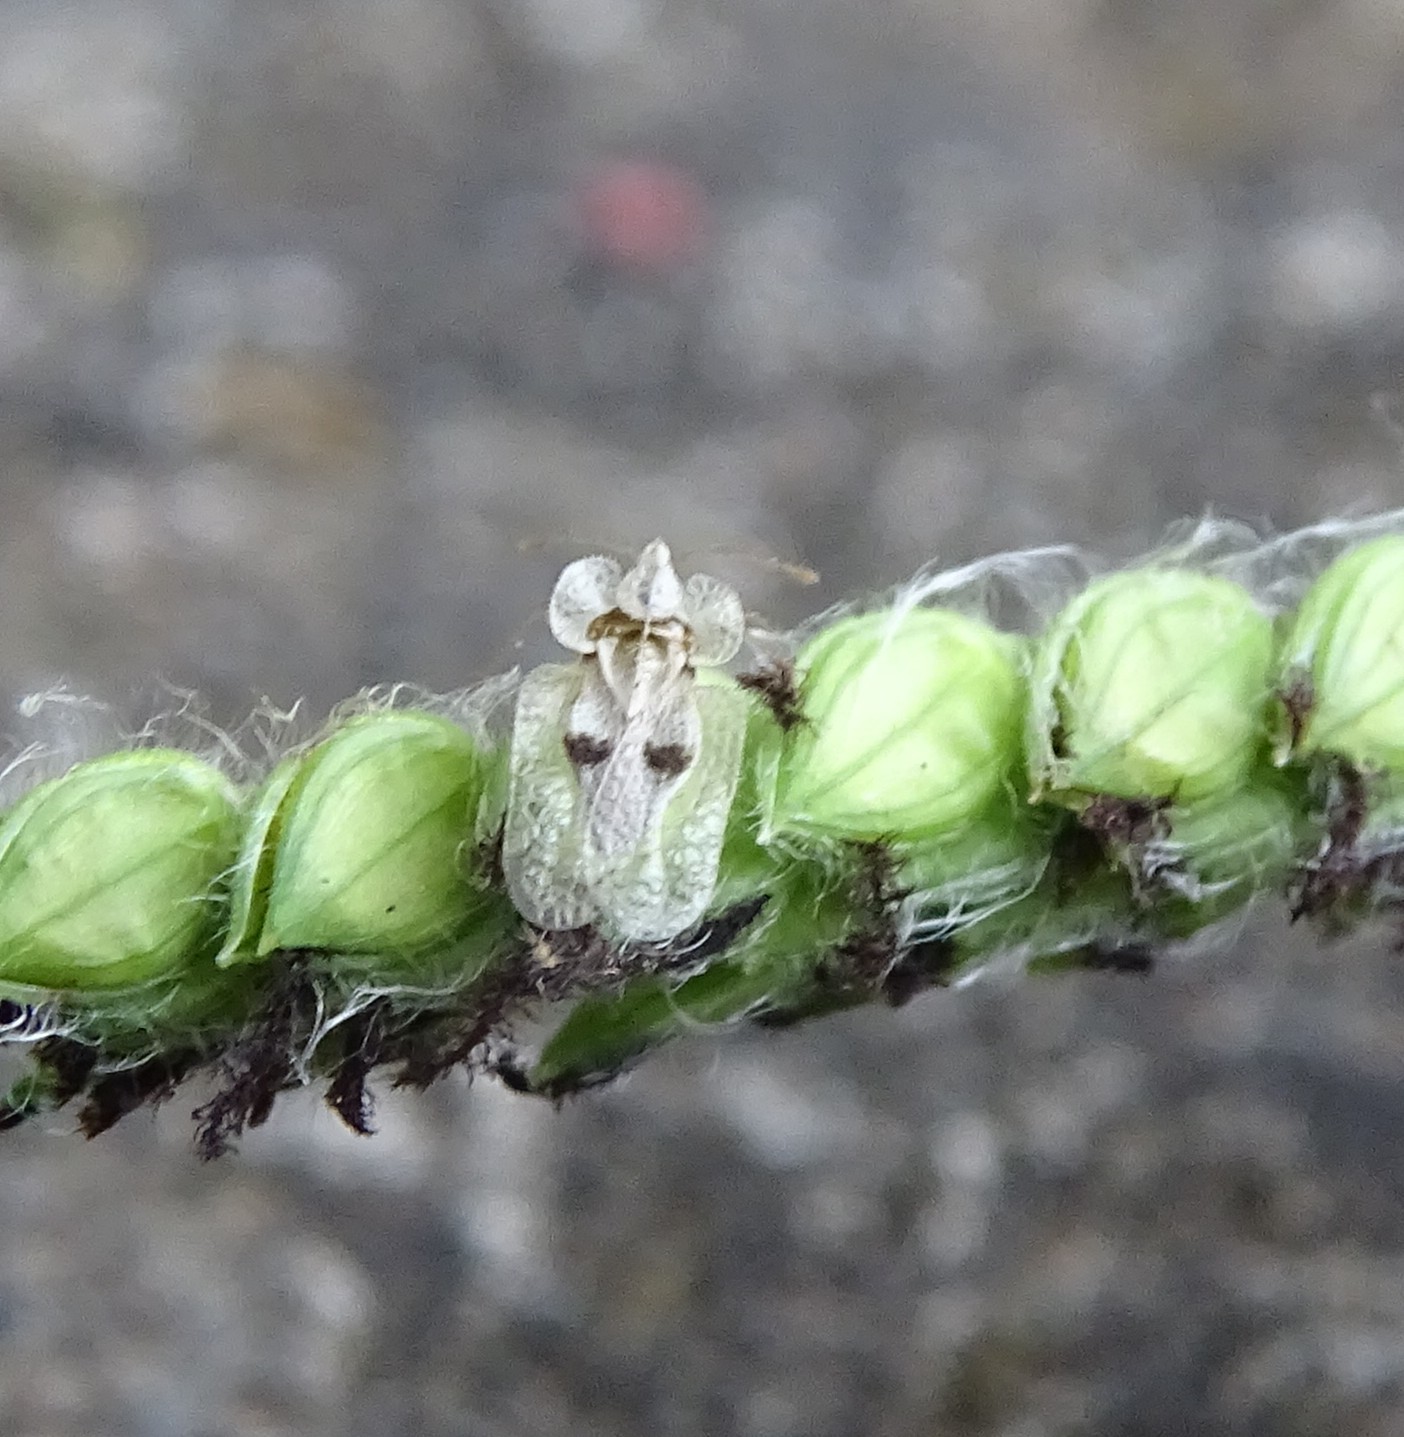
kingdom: Animalia
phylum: Arthropoda
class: Insecta
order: Hemiptera
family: Tingidae
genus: Corythucha
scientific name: Corythucha ciliata
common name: Sycamore lace bug
